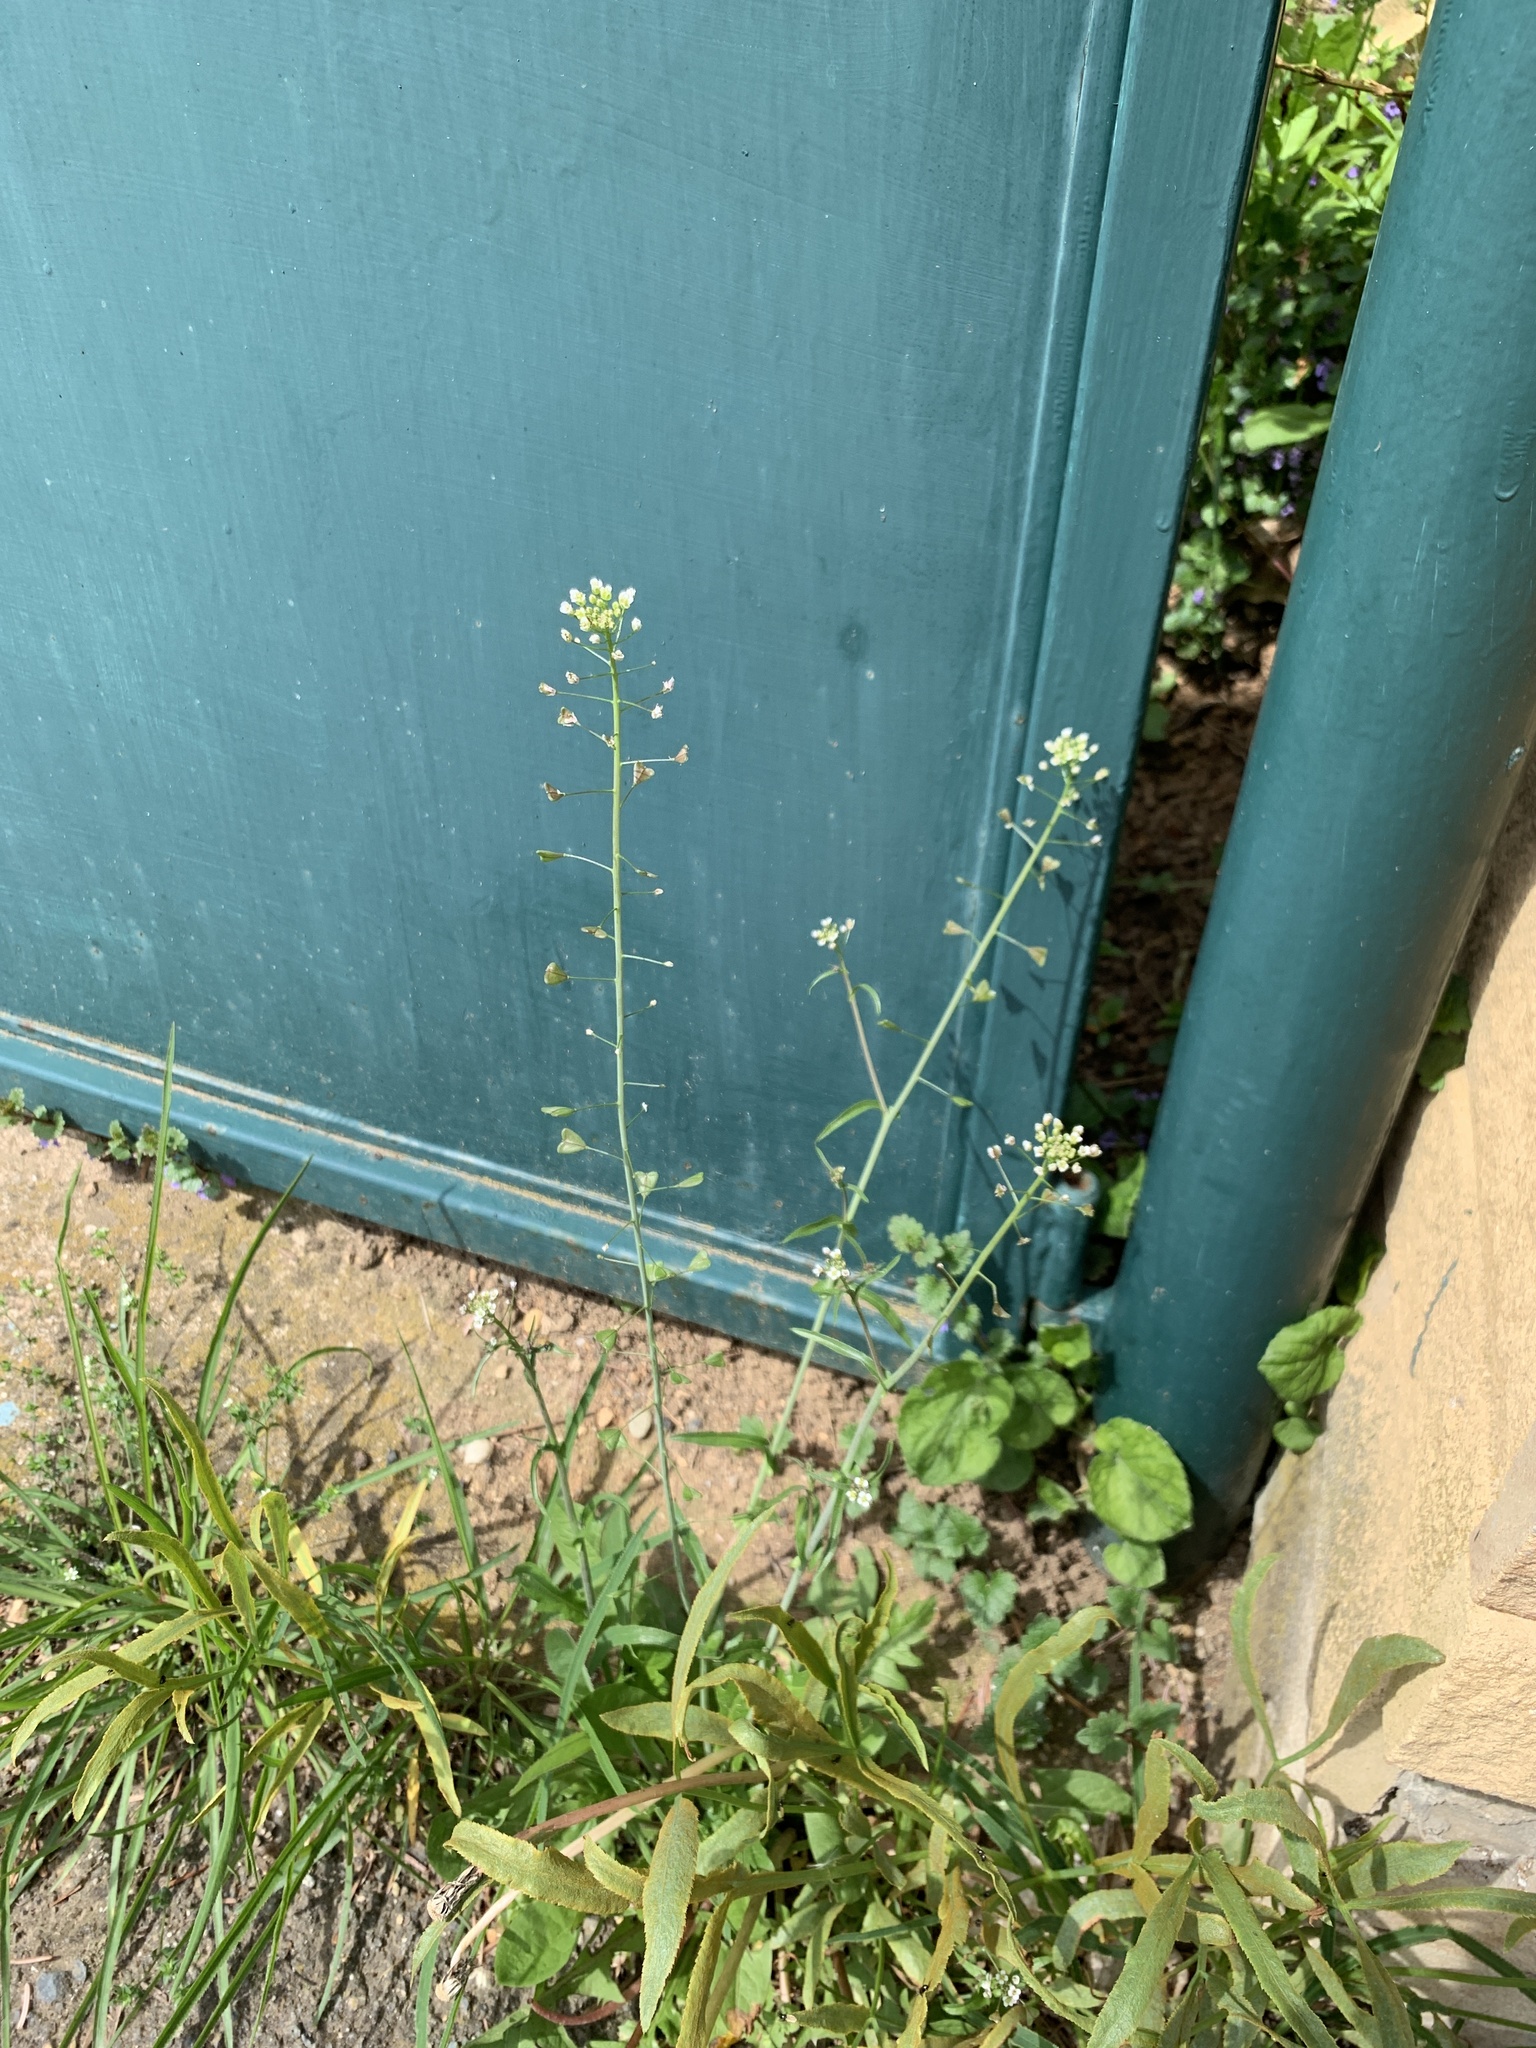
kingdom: Plantae
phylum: Tracheophyta
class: Magnoliopsida
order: Brassicales
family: Brassicaceae
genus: Capsella
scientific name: Capsella bursa-pastoris
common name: Shepherd's purse
